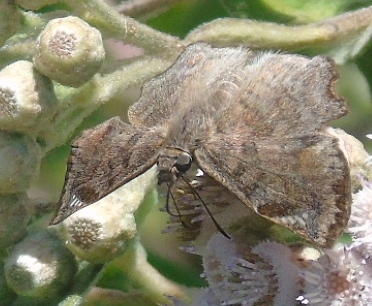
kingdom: Animalia
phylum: Arthropoda
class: Insecta
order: Lepidoptera
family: Hesperiidae
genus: Antigonus
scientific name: Antigonus erosus
